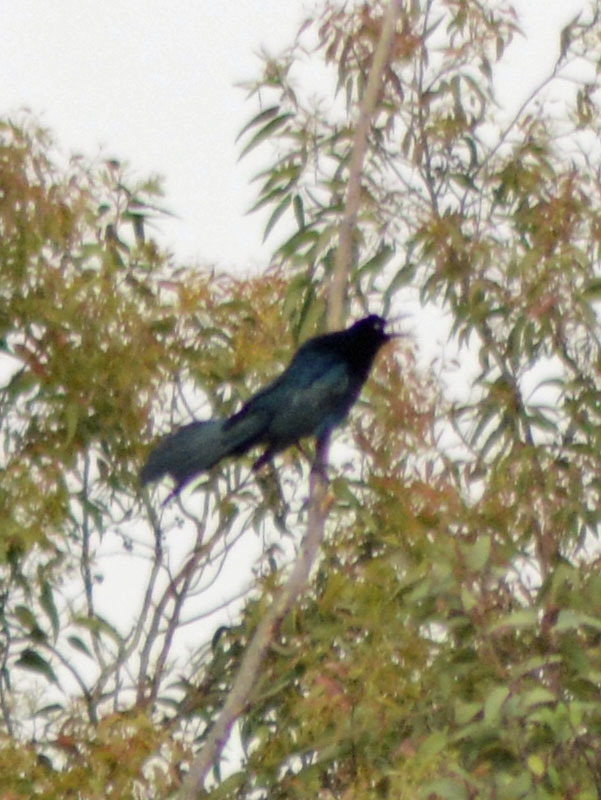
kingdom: Animalia
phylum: Chordata
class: Aves
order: Passeriformes
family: Icteridae
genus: Quiscalus
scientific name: Quiscalus mexicanus
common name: Great-tailed grackle
